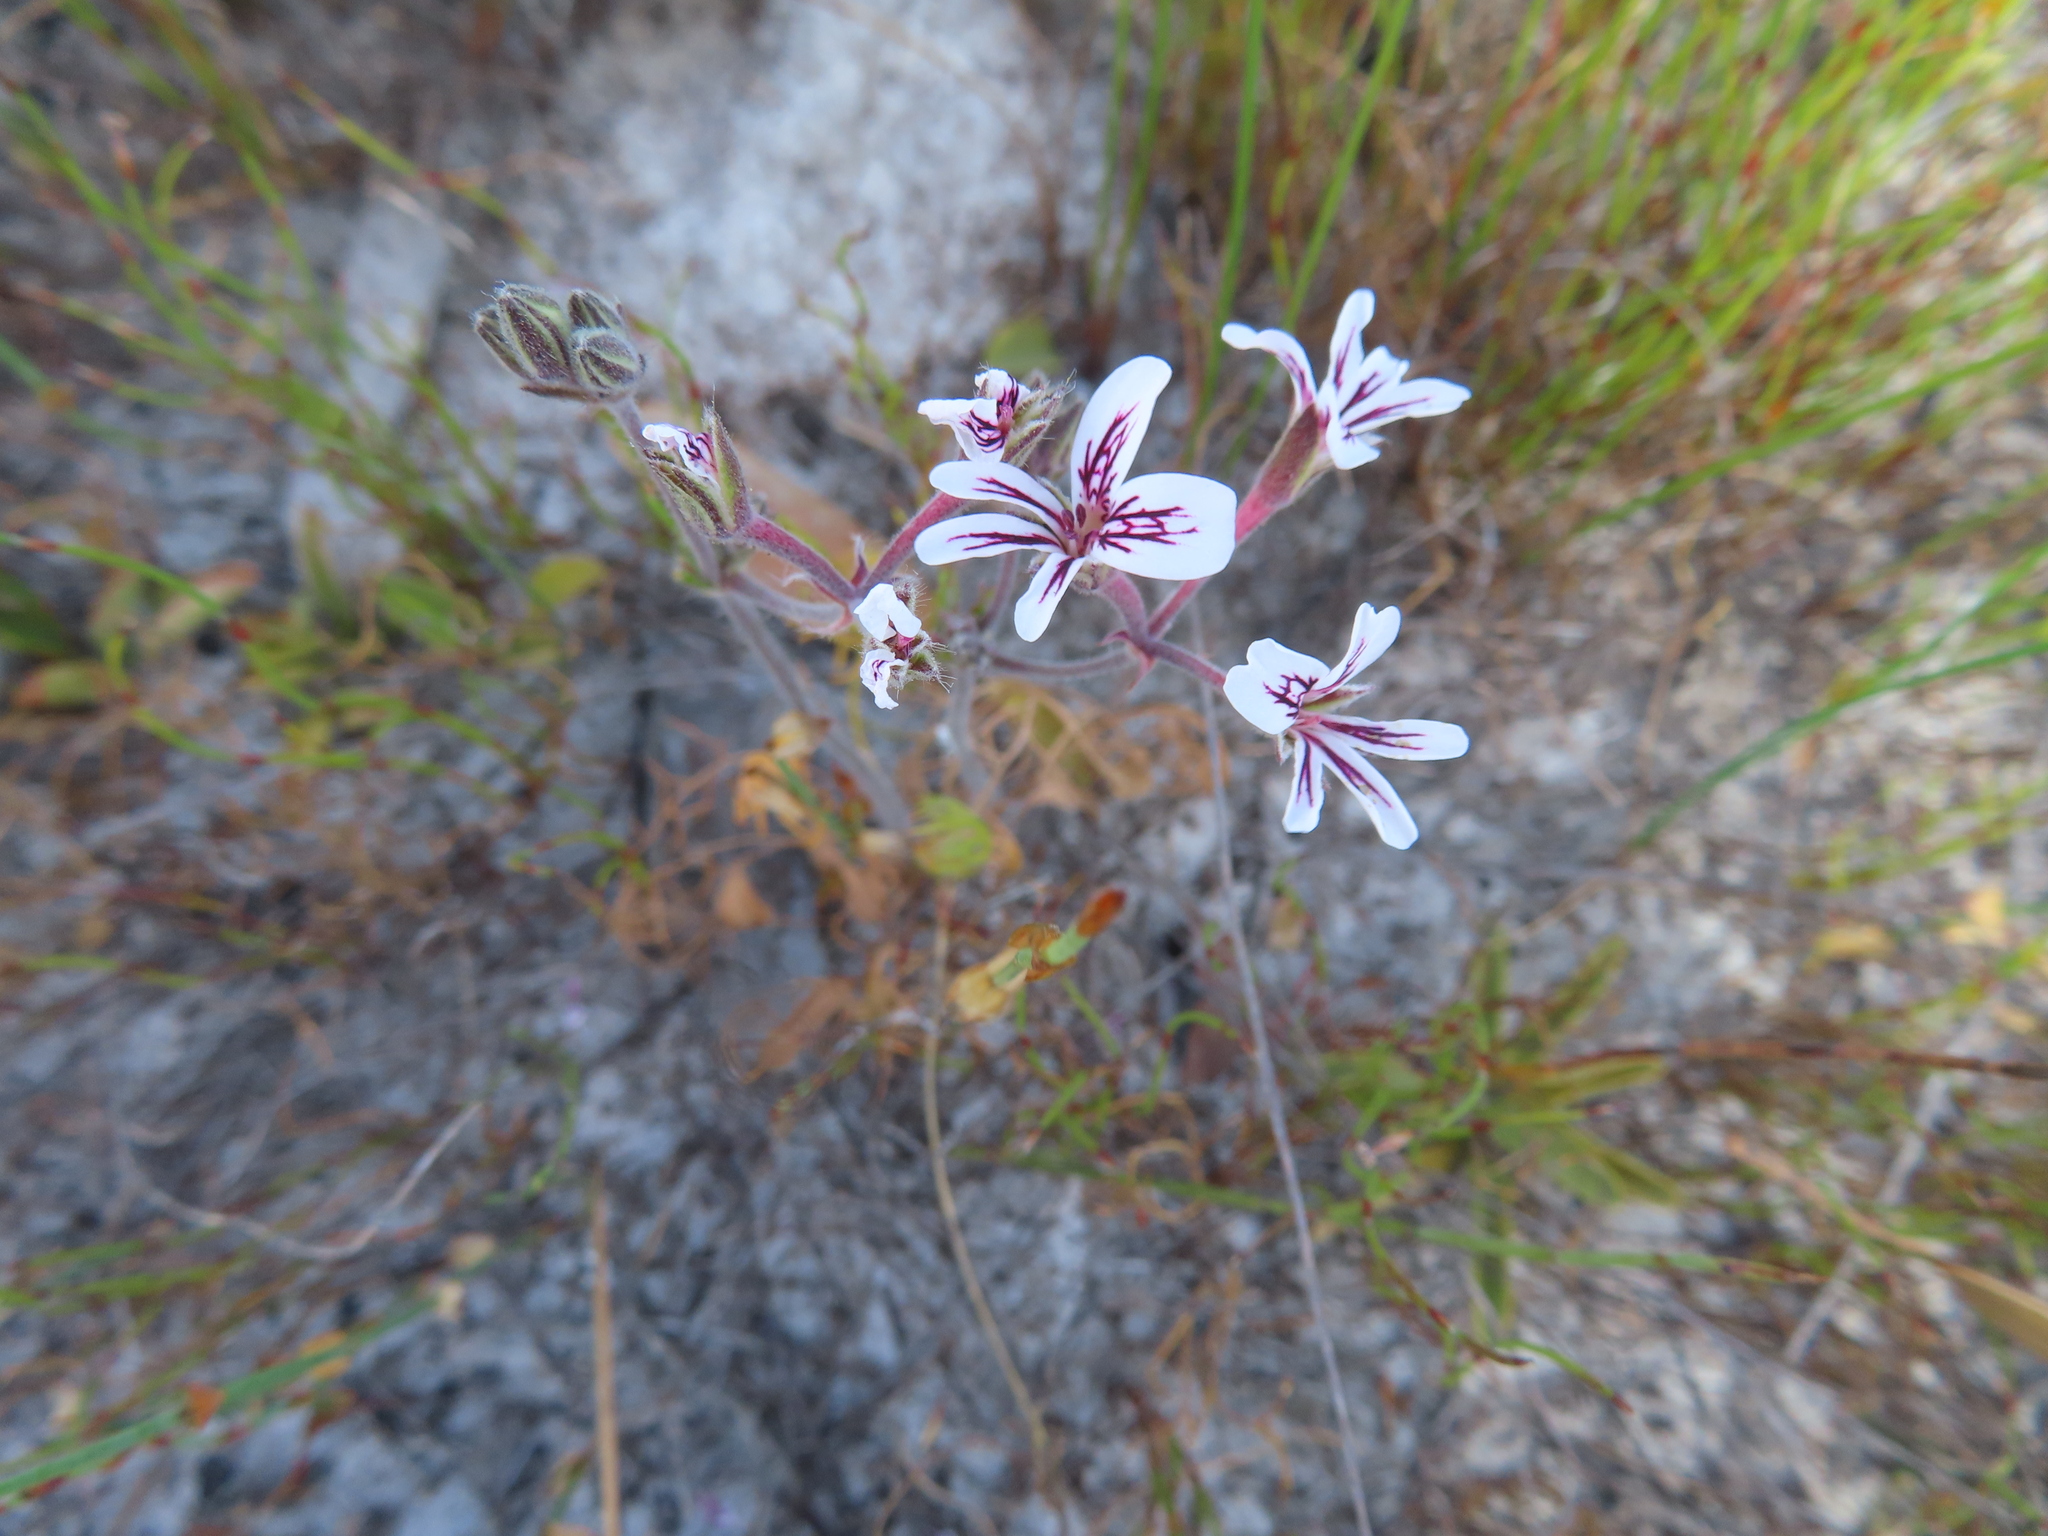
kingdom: Plantae
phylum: Tracheophyta
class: Magnoliopsida
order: Geraniales
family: Geraniaceae
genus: Pelargonium
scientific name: Pelargonium psammophilum
